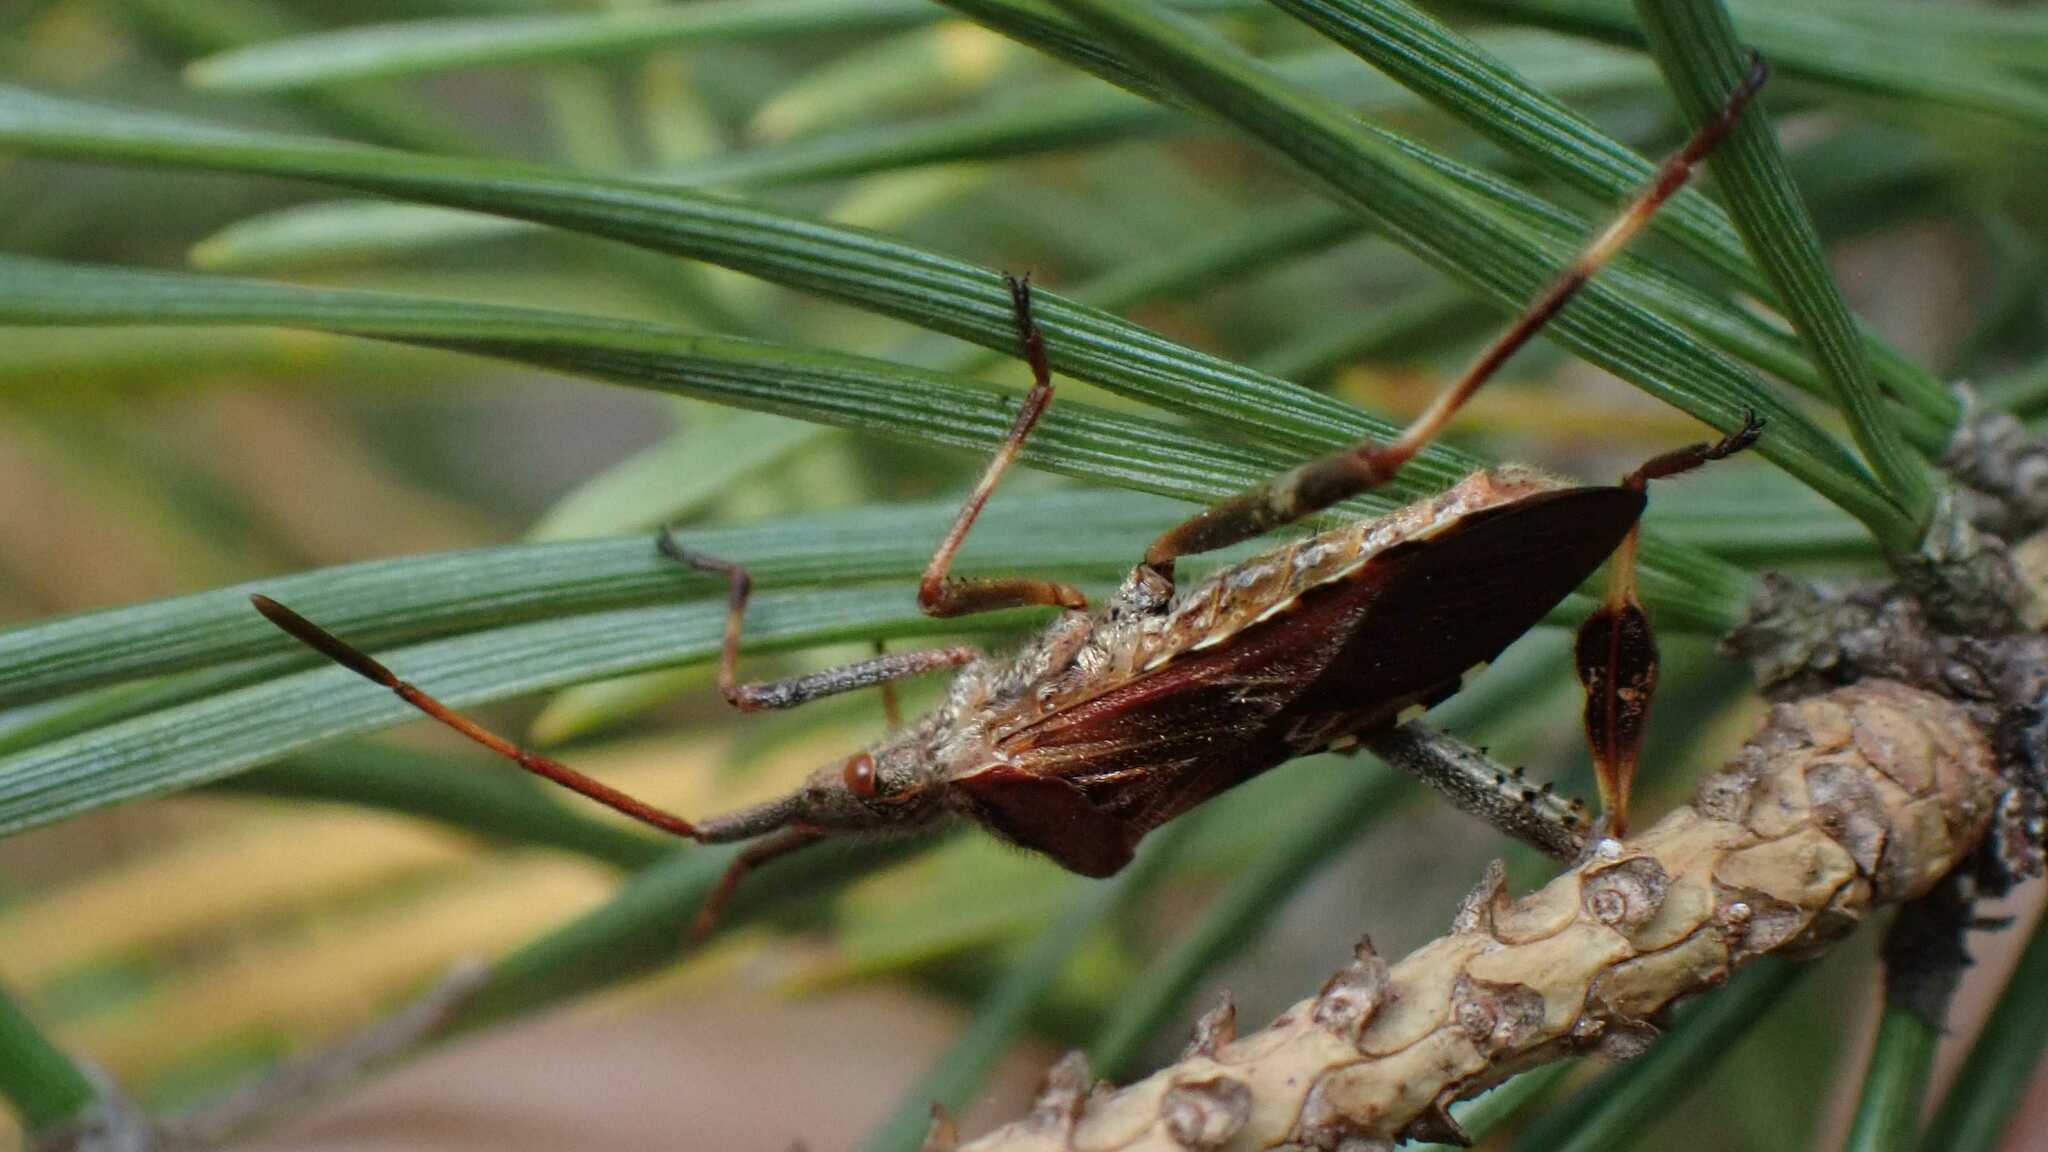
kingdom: Animalia
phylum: Arthropoda
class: Insecta
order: Hemiptera
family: Coreidae
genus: Leptoglossus
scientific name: Leptoglossus occidentalis
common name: Western conifer-seed bug
